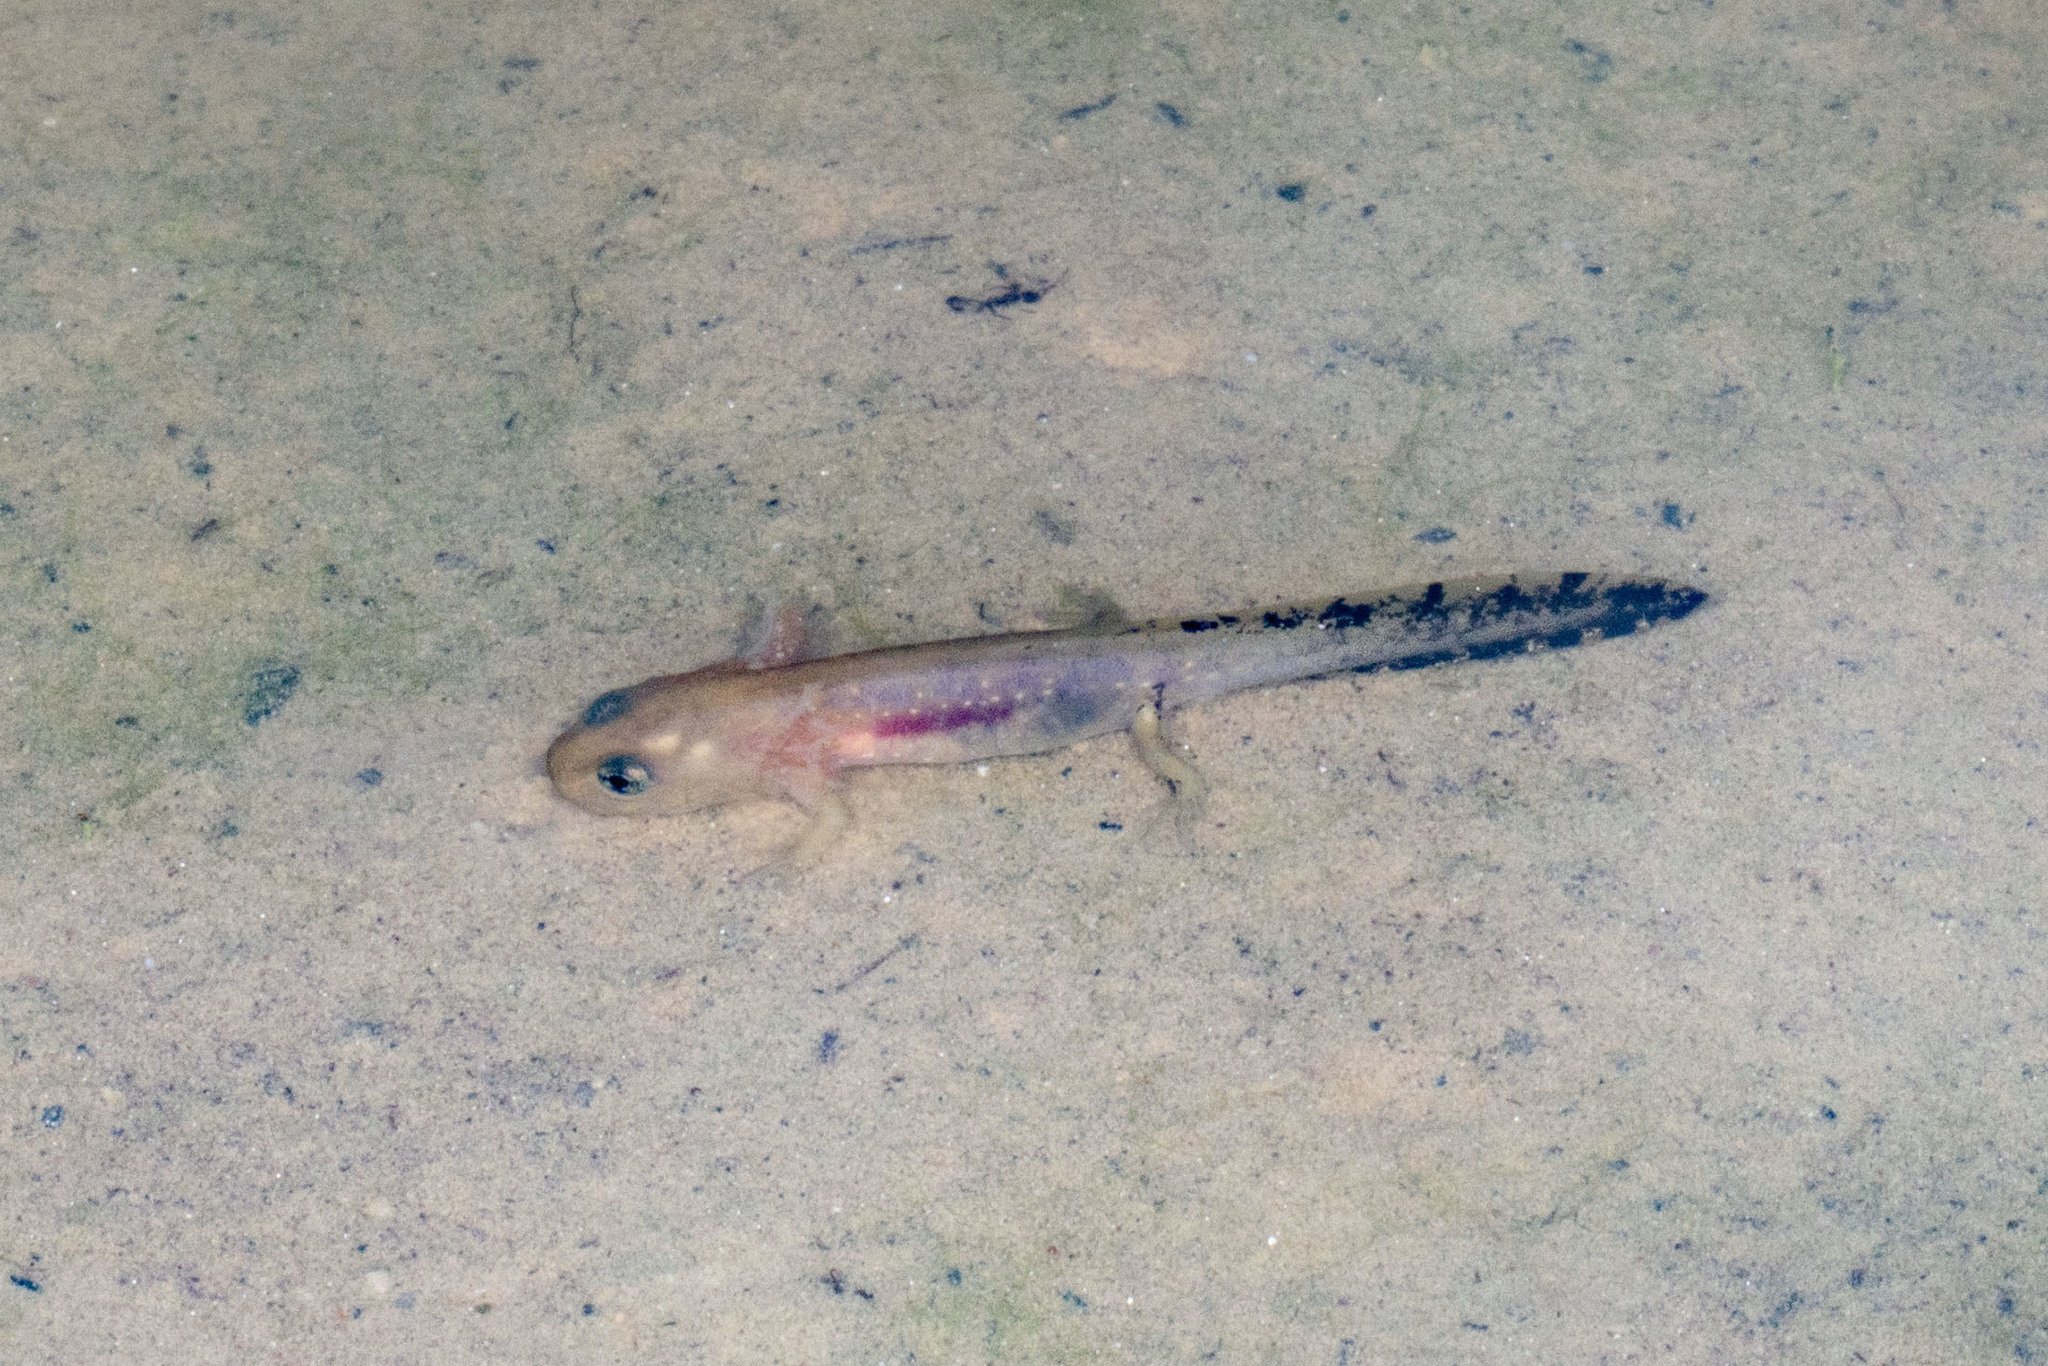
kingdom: Animalia
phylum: Chordata
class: Amphibia
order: Caudata
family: Salamandridae
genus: Salamandra
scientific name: Salamandra salamandra
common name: Fire salamander
